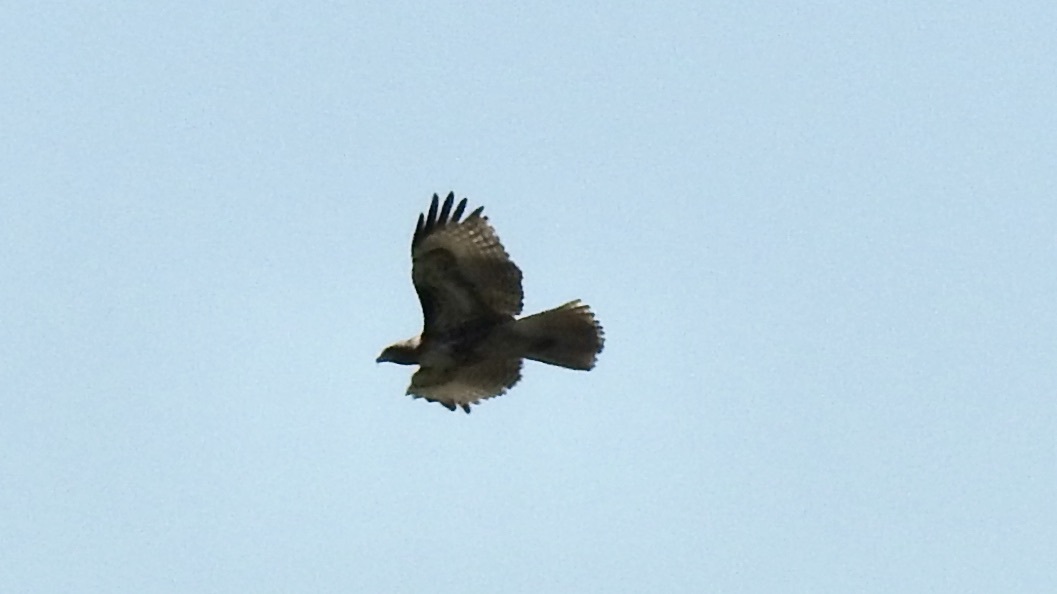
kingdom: Animalia
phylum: Chordata
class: Aves
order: Accipitriformes
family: Accipitridae
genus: Buteo
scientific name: Buteo jamaicensis
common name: Red-tailed hawk
